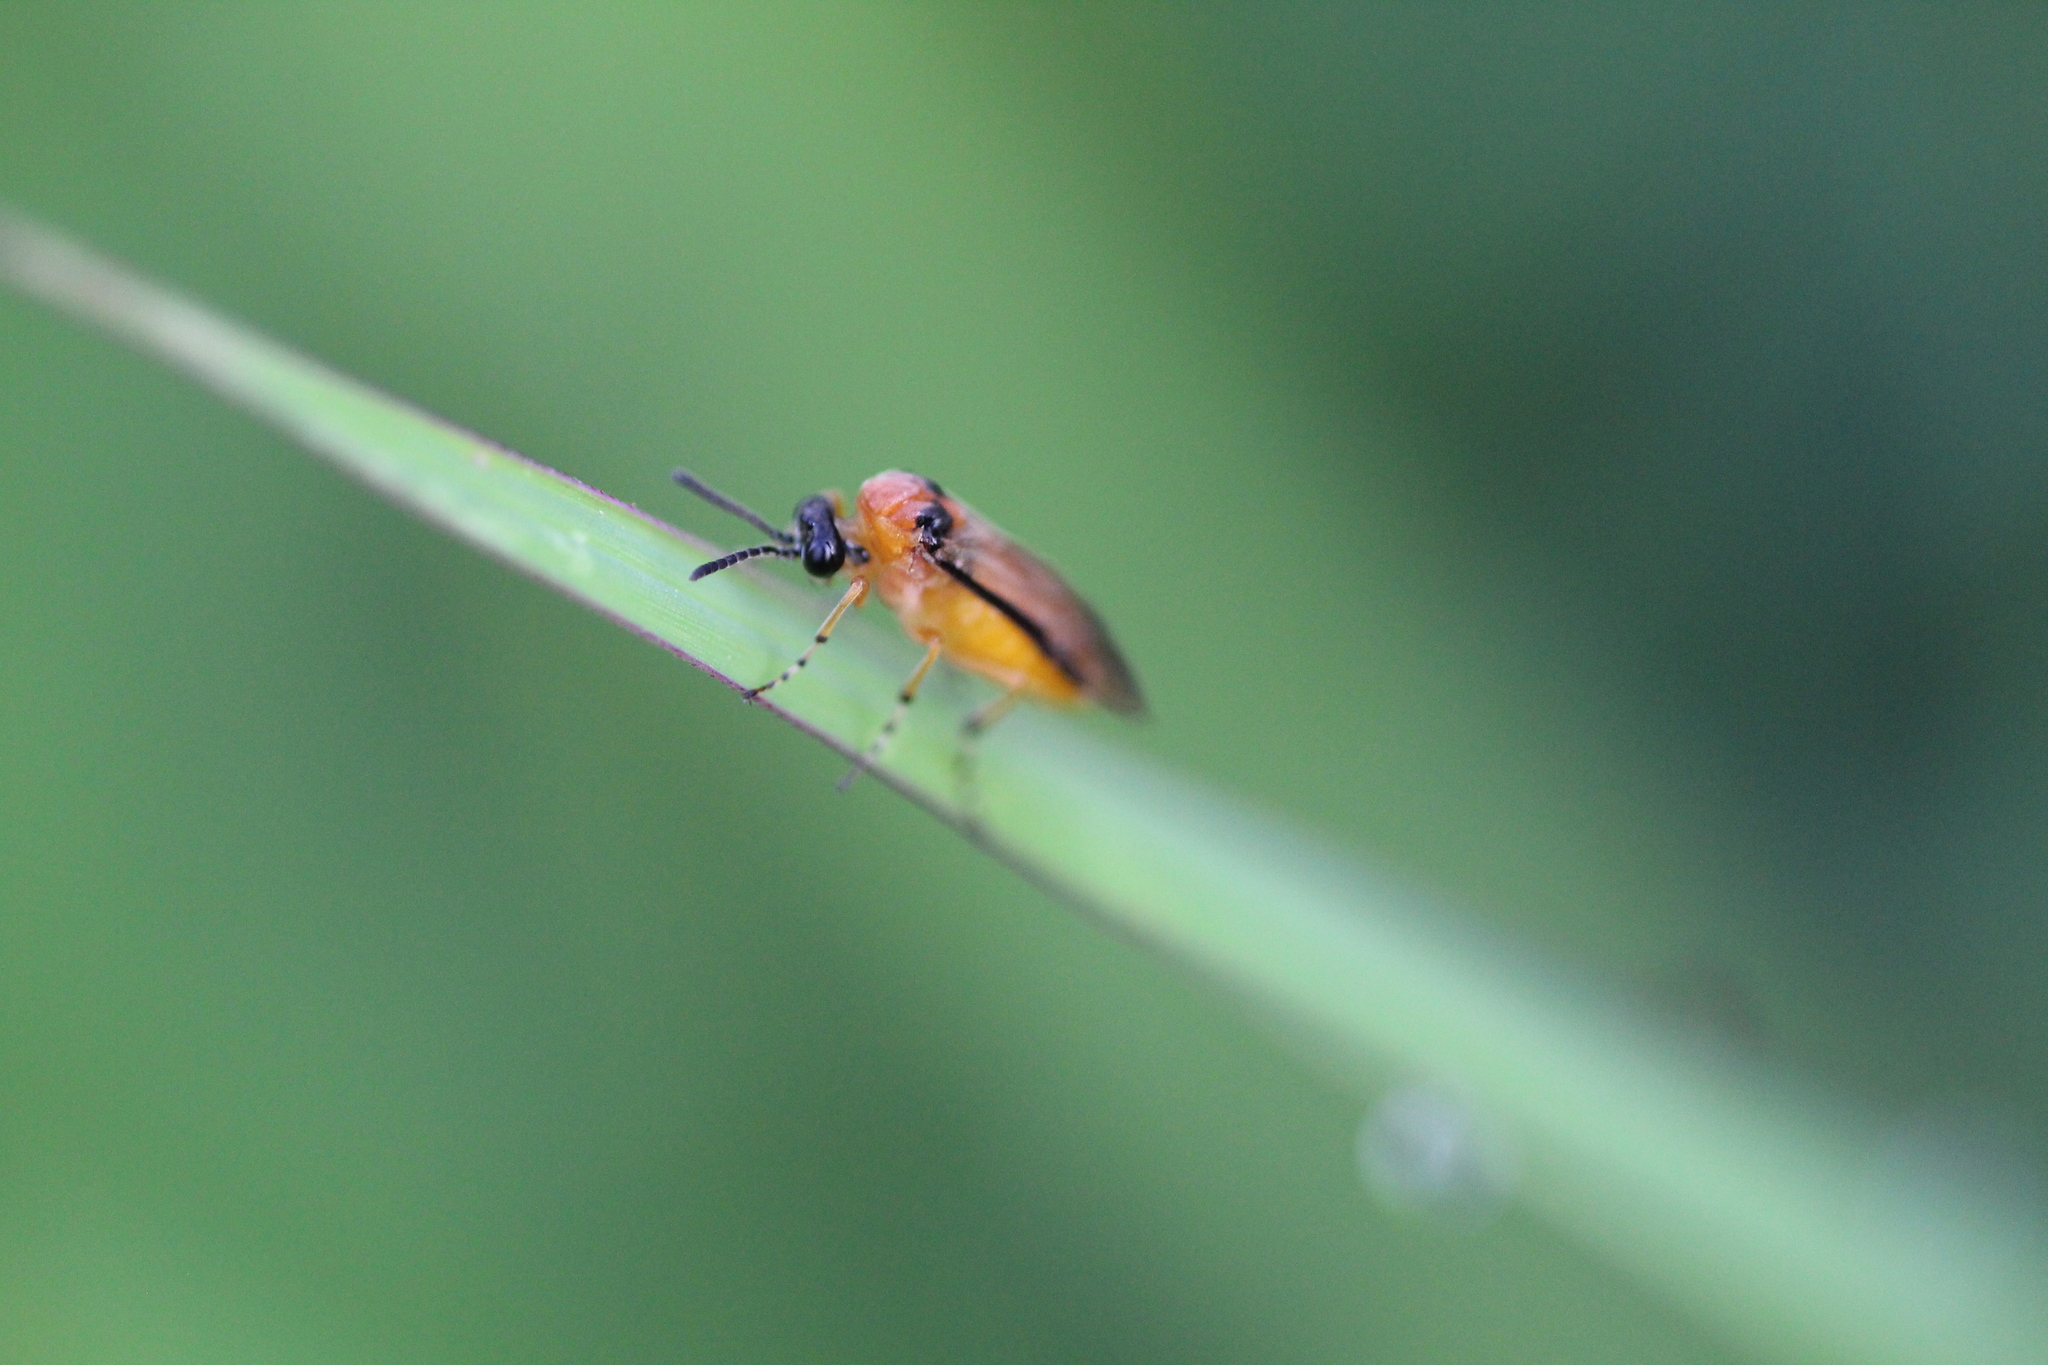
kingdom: Animalia
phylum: Arthropoda
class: Insecta
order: Hymenoptera
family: Tenthredinidae
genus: Athalia
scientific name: Athalia rosae
